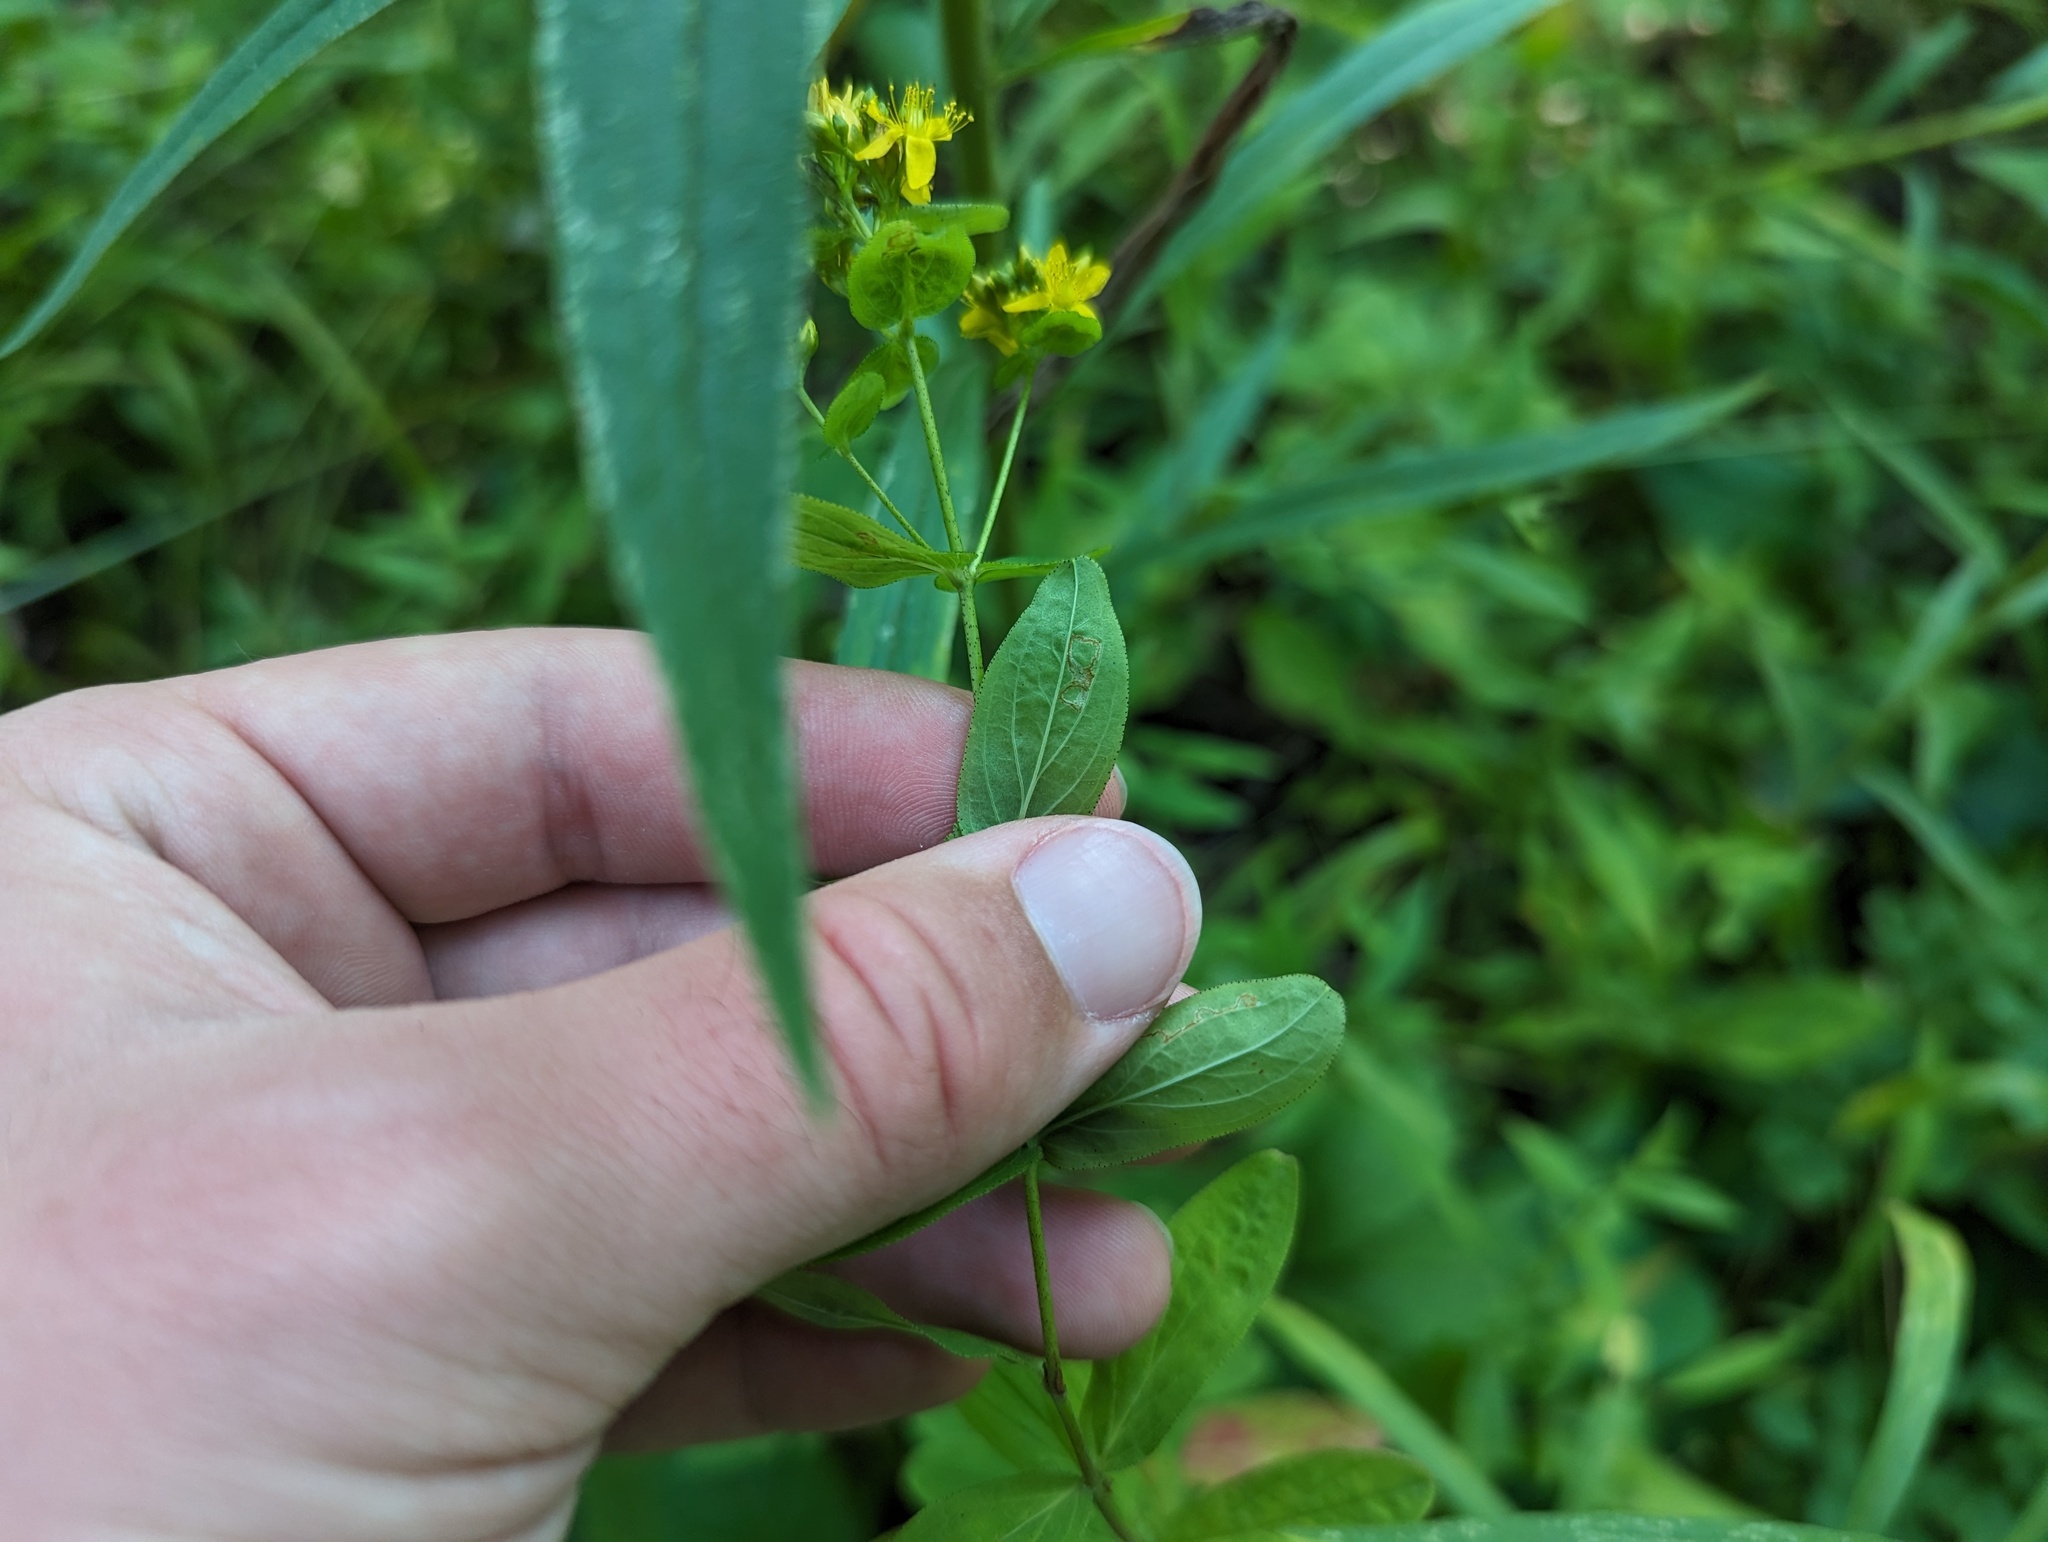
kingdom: Plantae
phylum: Tracheophyta
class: Magnoliopsida
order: Malpighiales
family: Hypericaceae
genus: Hypericum
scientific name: Hypericum punctatum
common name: Spotted st. john's-wort
